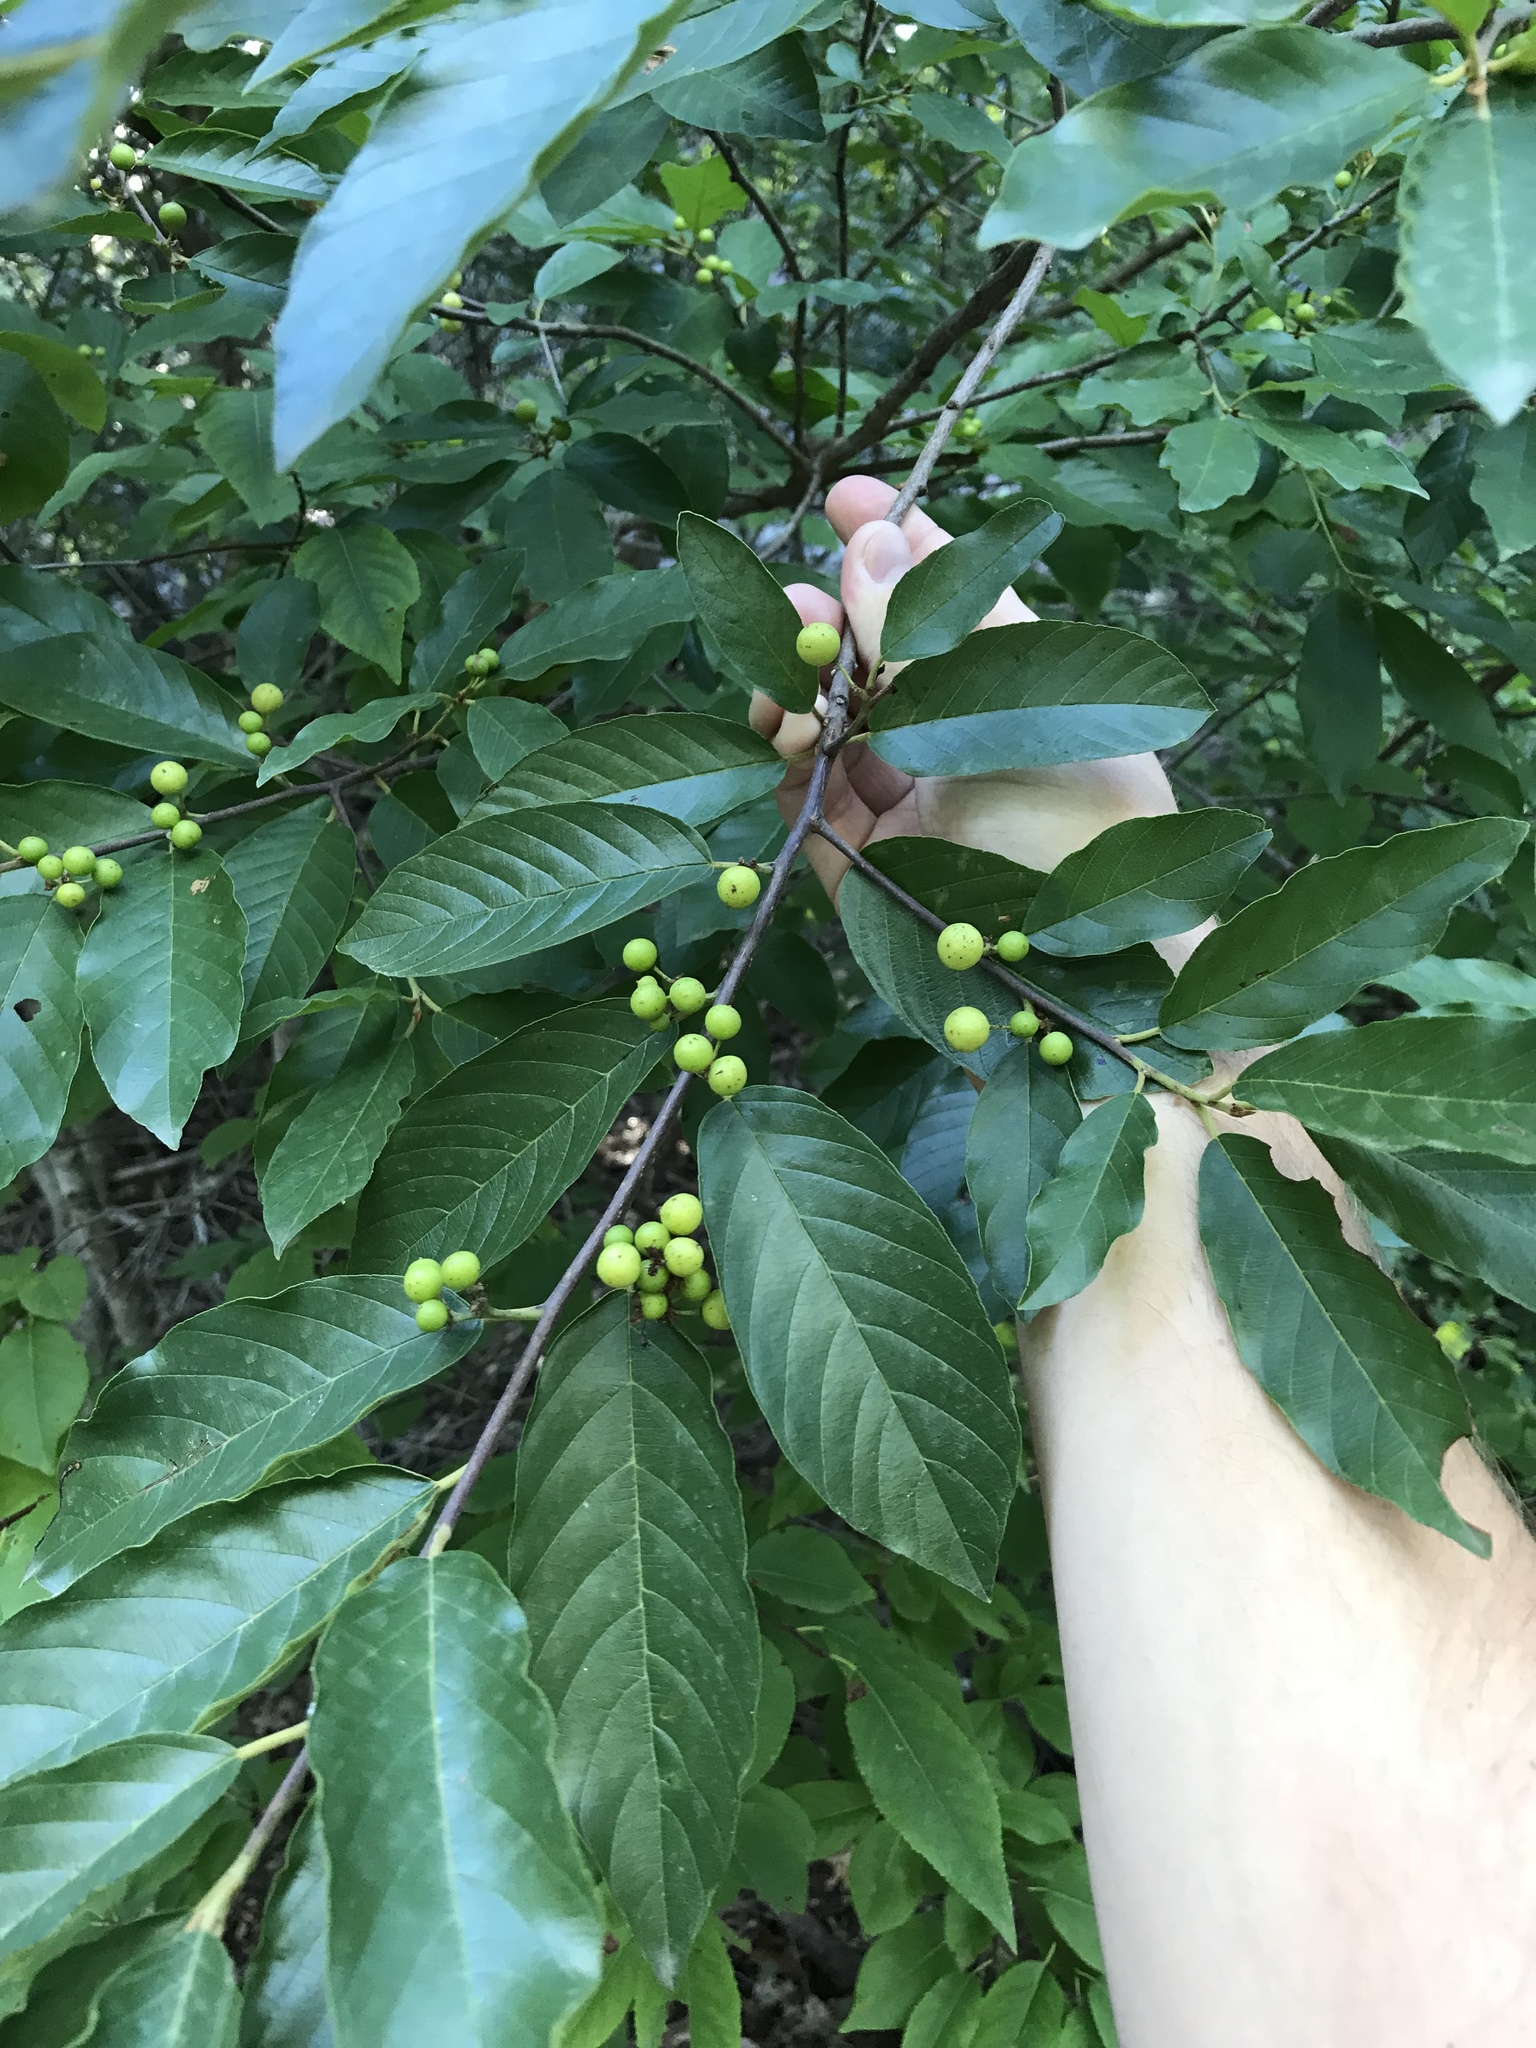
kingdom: Plantae
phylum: Tracheophyta
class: Magnoliopsida
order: Rosales
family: Rhamnaceae
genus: Frangula
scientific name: Frangula caroliniana
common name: Carolina buckthorn
